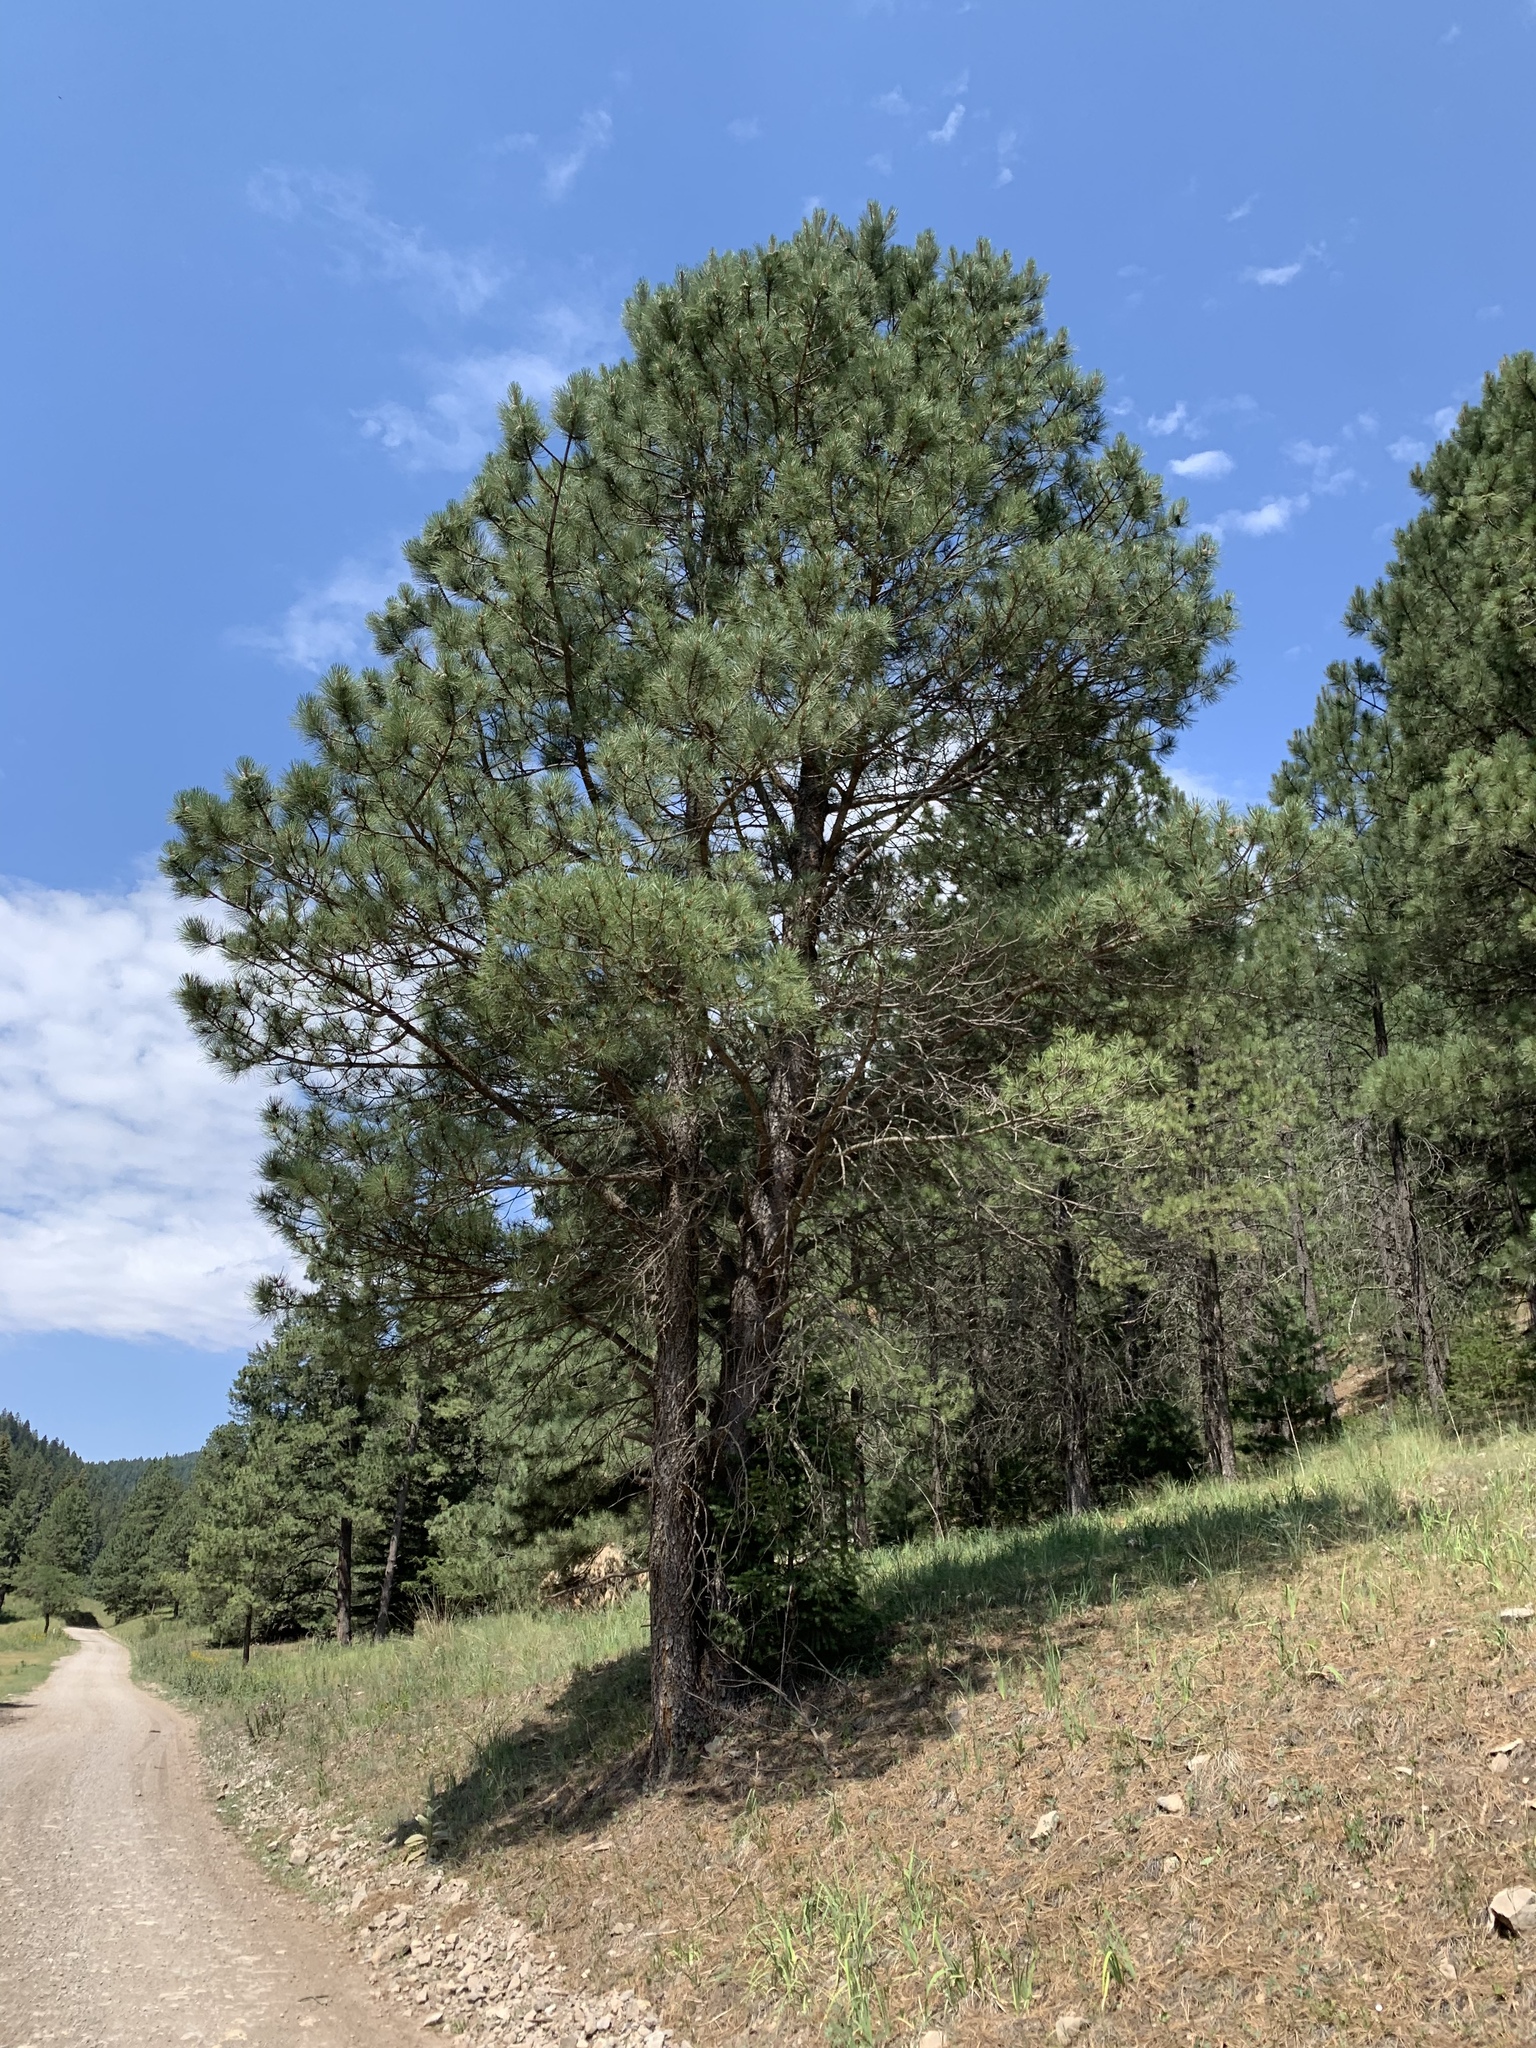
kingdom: Plantae
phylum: Tracheophyta
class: Pinopsida
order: Pinales
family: Pinaceae
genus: Pinus
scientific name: Pinus ponderosa
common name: Western yellow-pine
